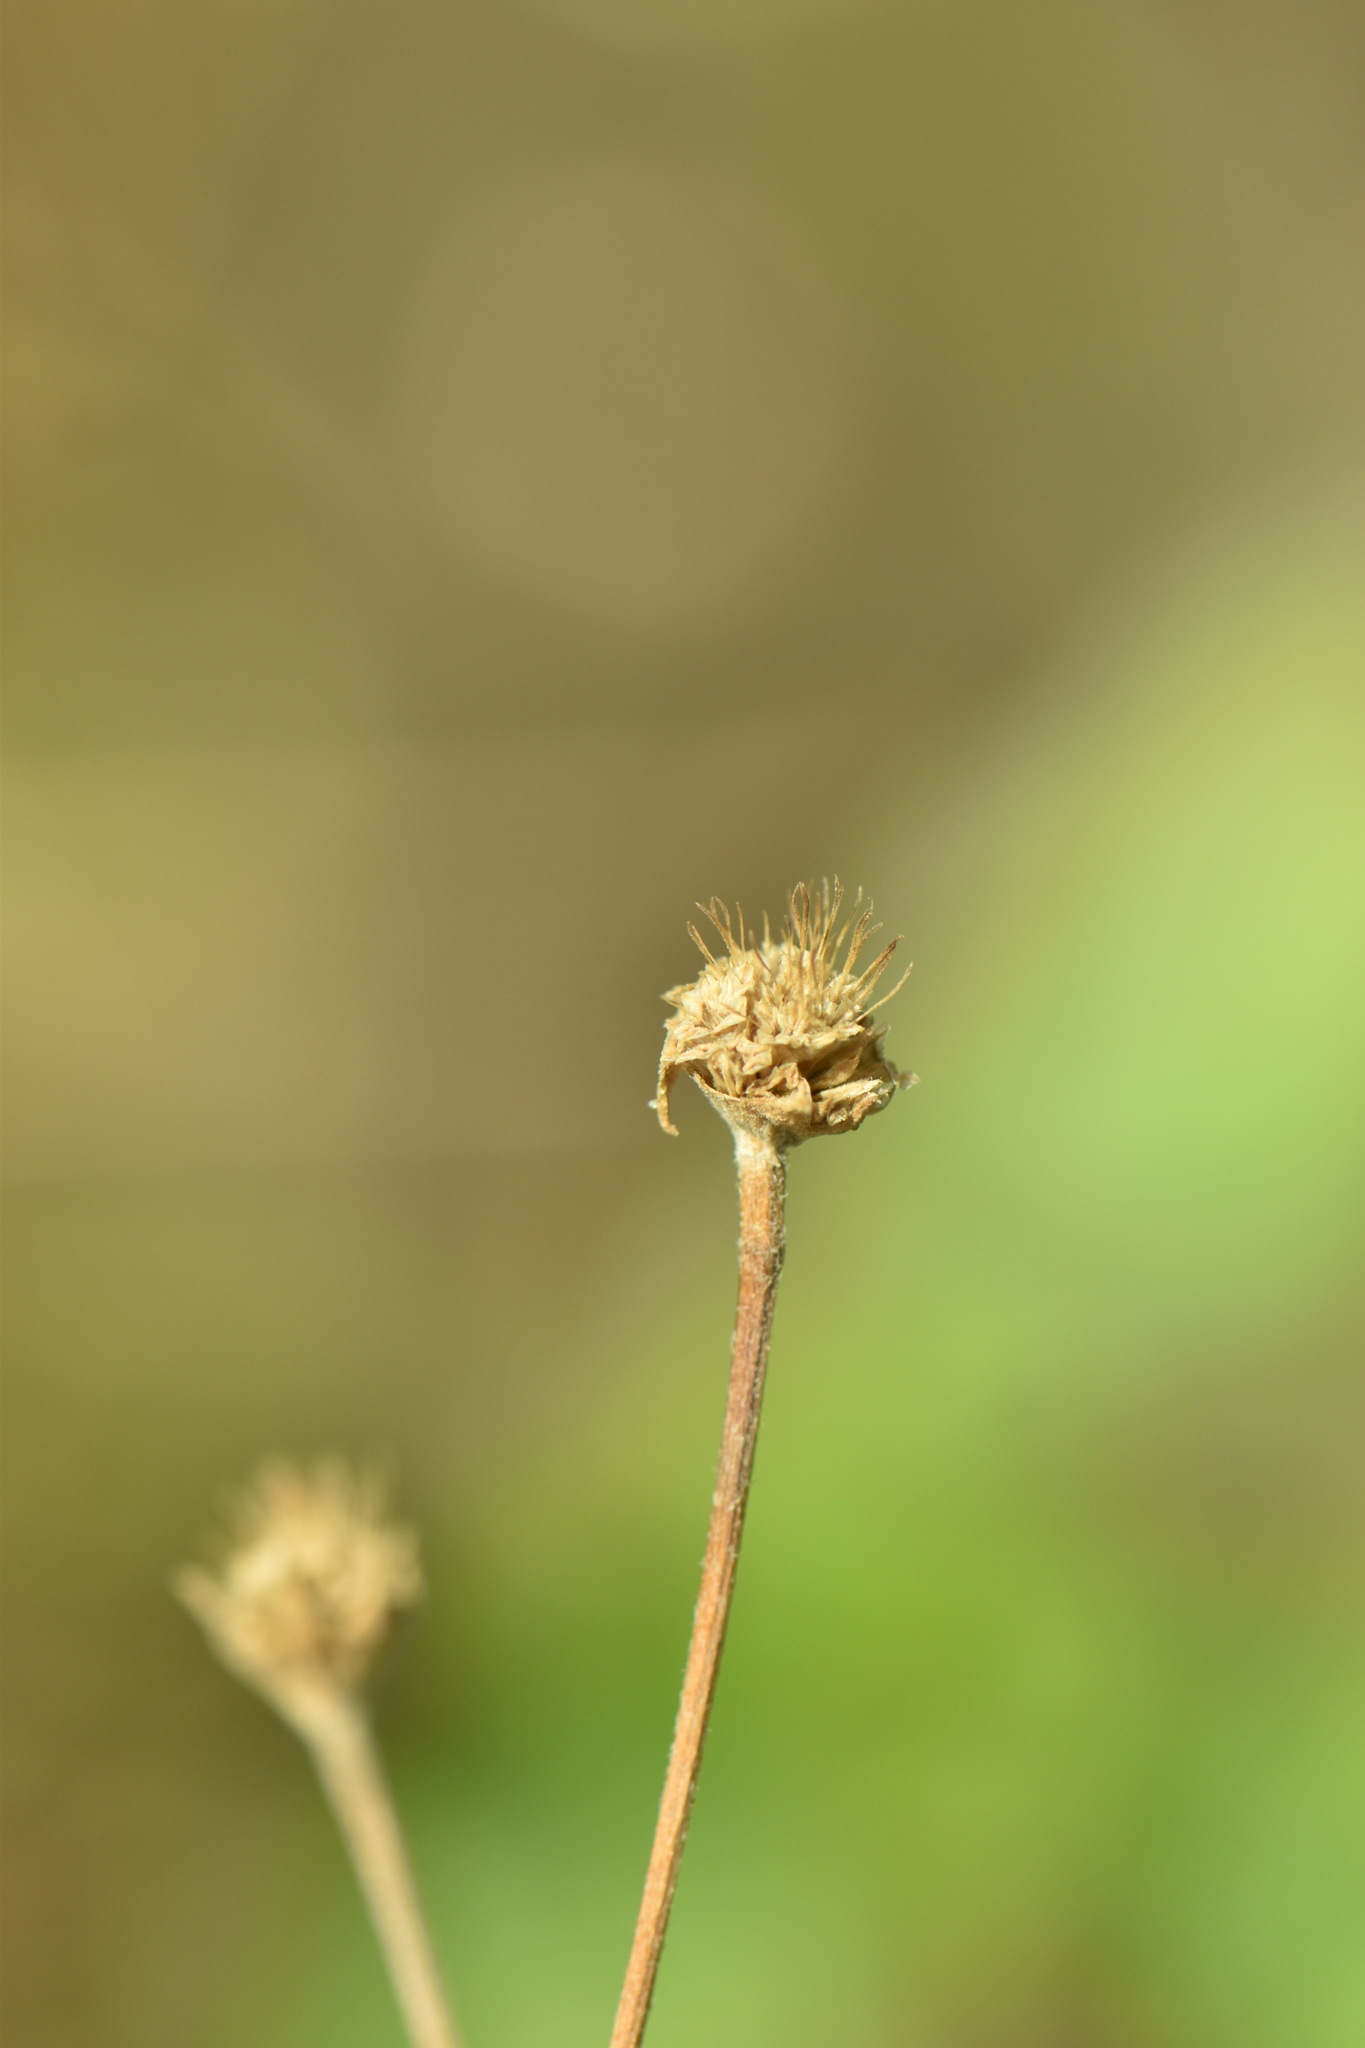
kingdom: Plantae
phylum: Tracheophyta
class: Magnoliopsida
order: Dipsacales
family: Caprifoliaceae
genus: Pycnocomon
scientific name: Pycnocomon rutifolium
